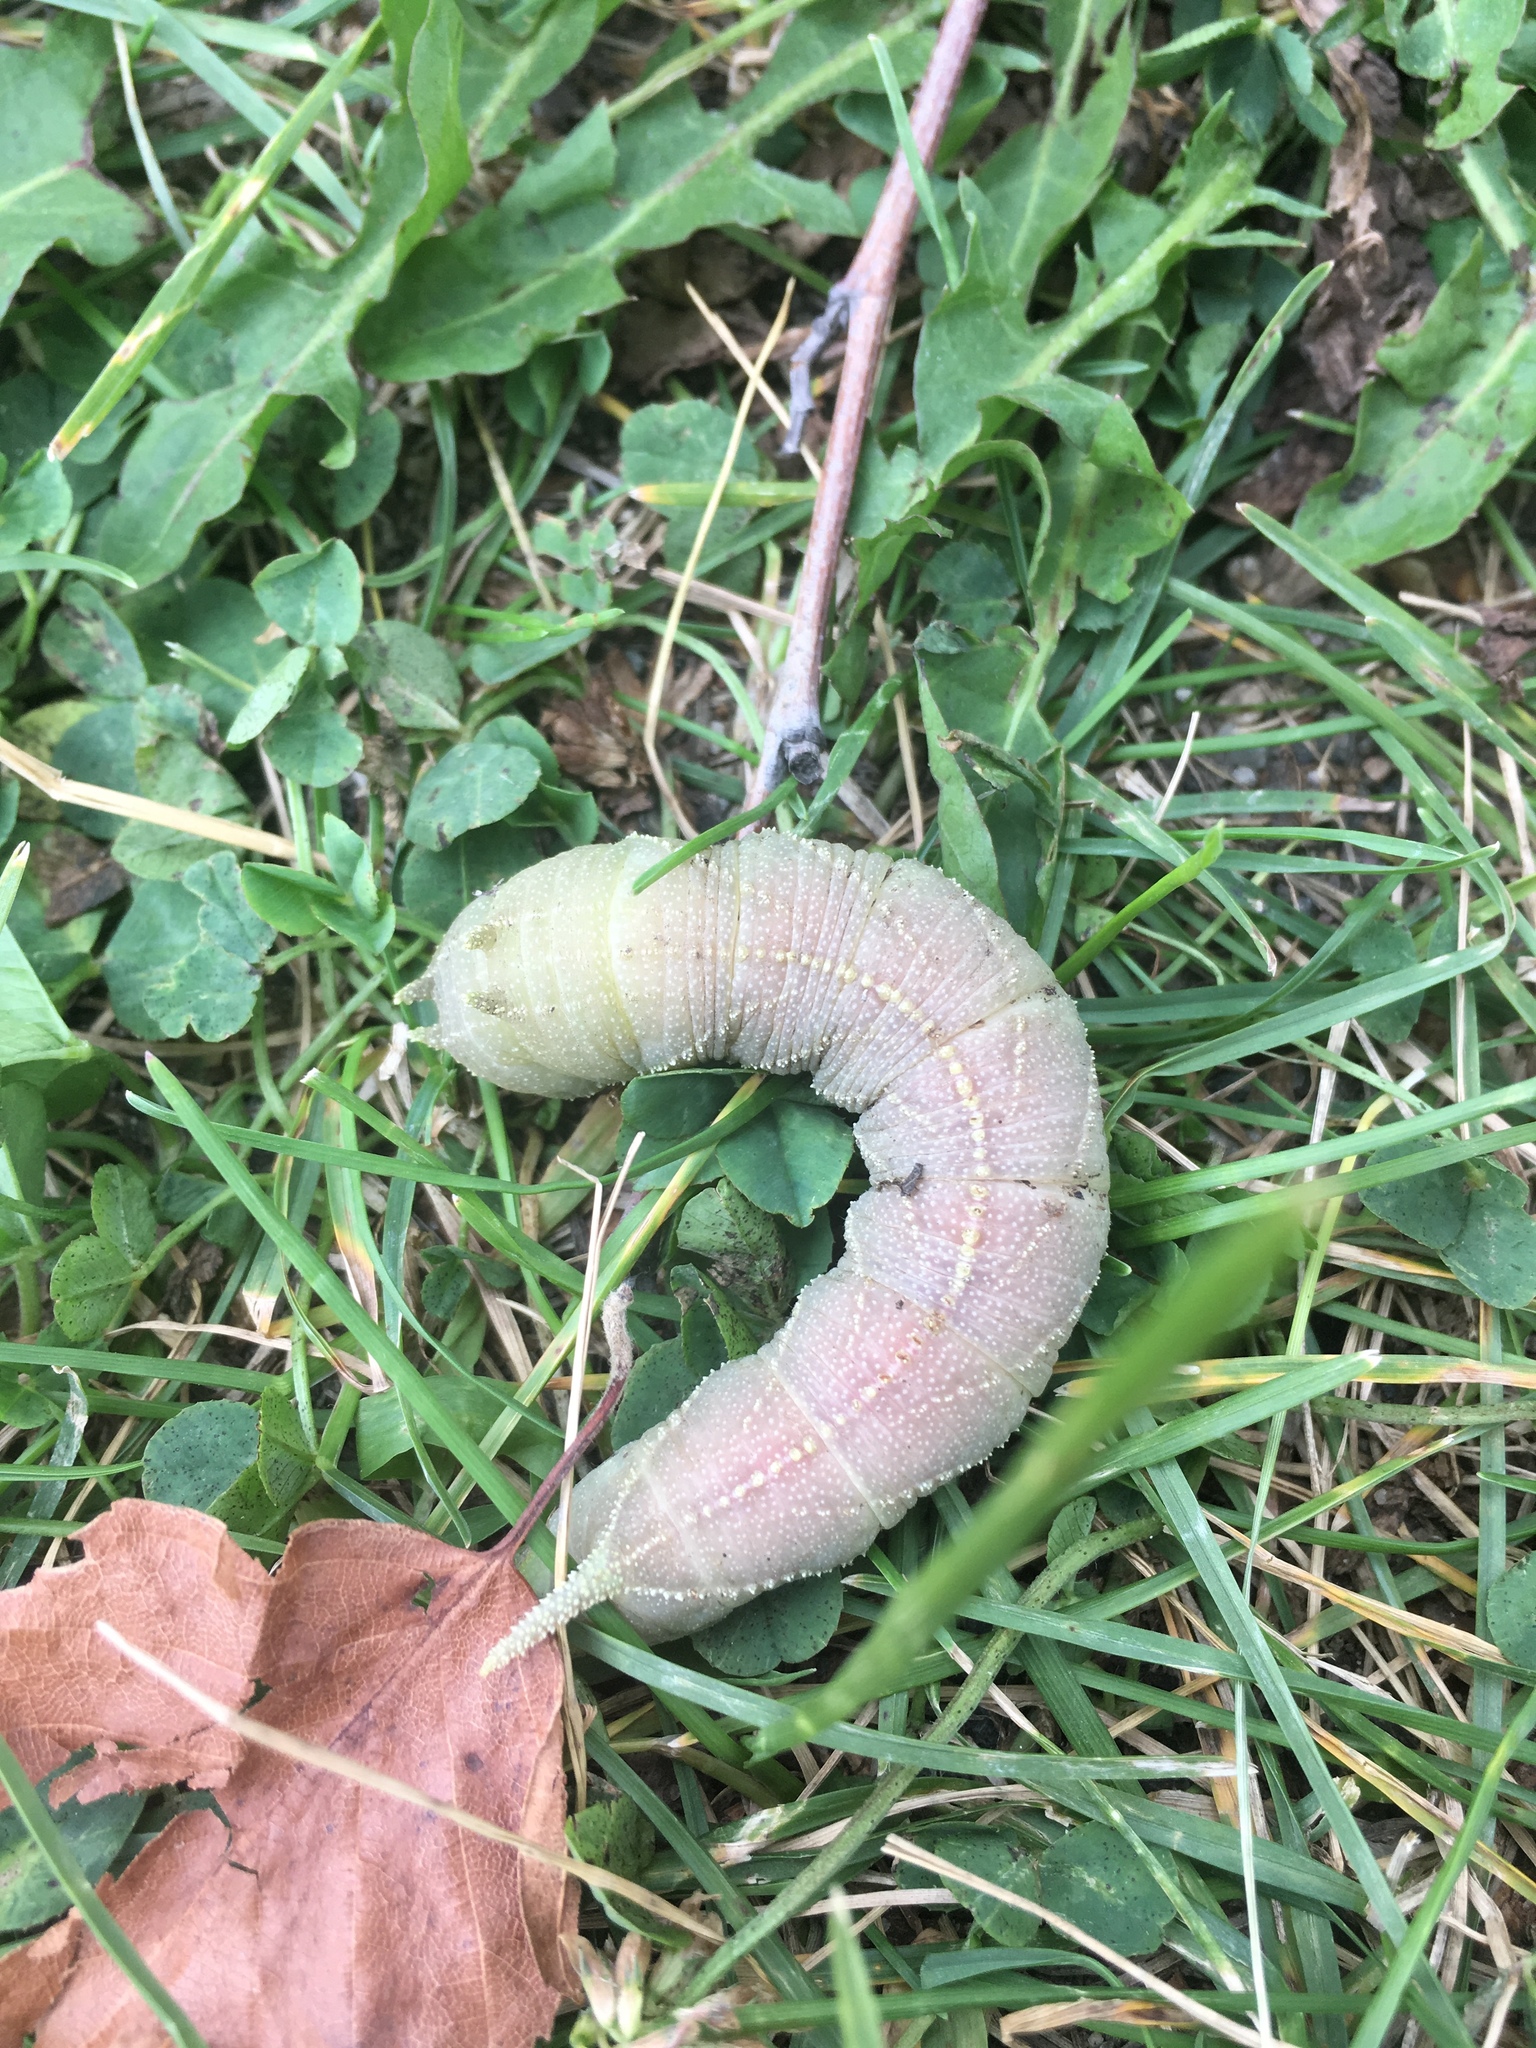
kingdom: Animalia
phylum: Arthropoda
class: Insecta
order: Lepidoptera
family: Sphingidae
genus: Ceratomia
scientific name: Ceratomia amyntor
